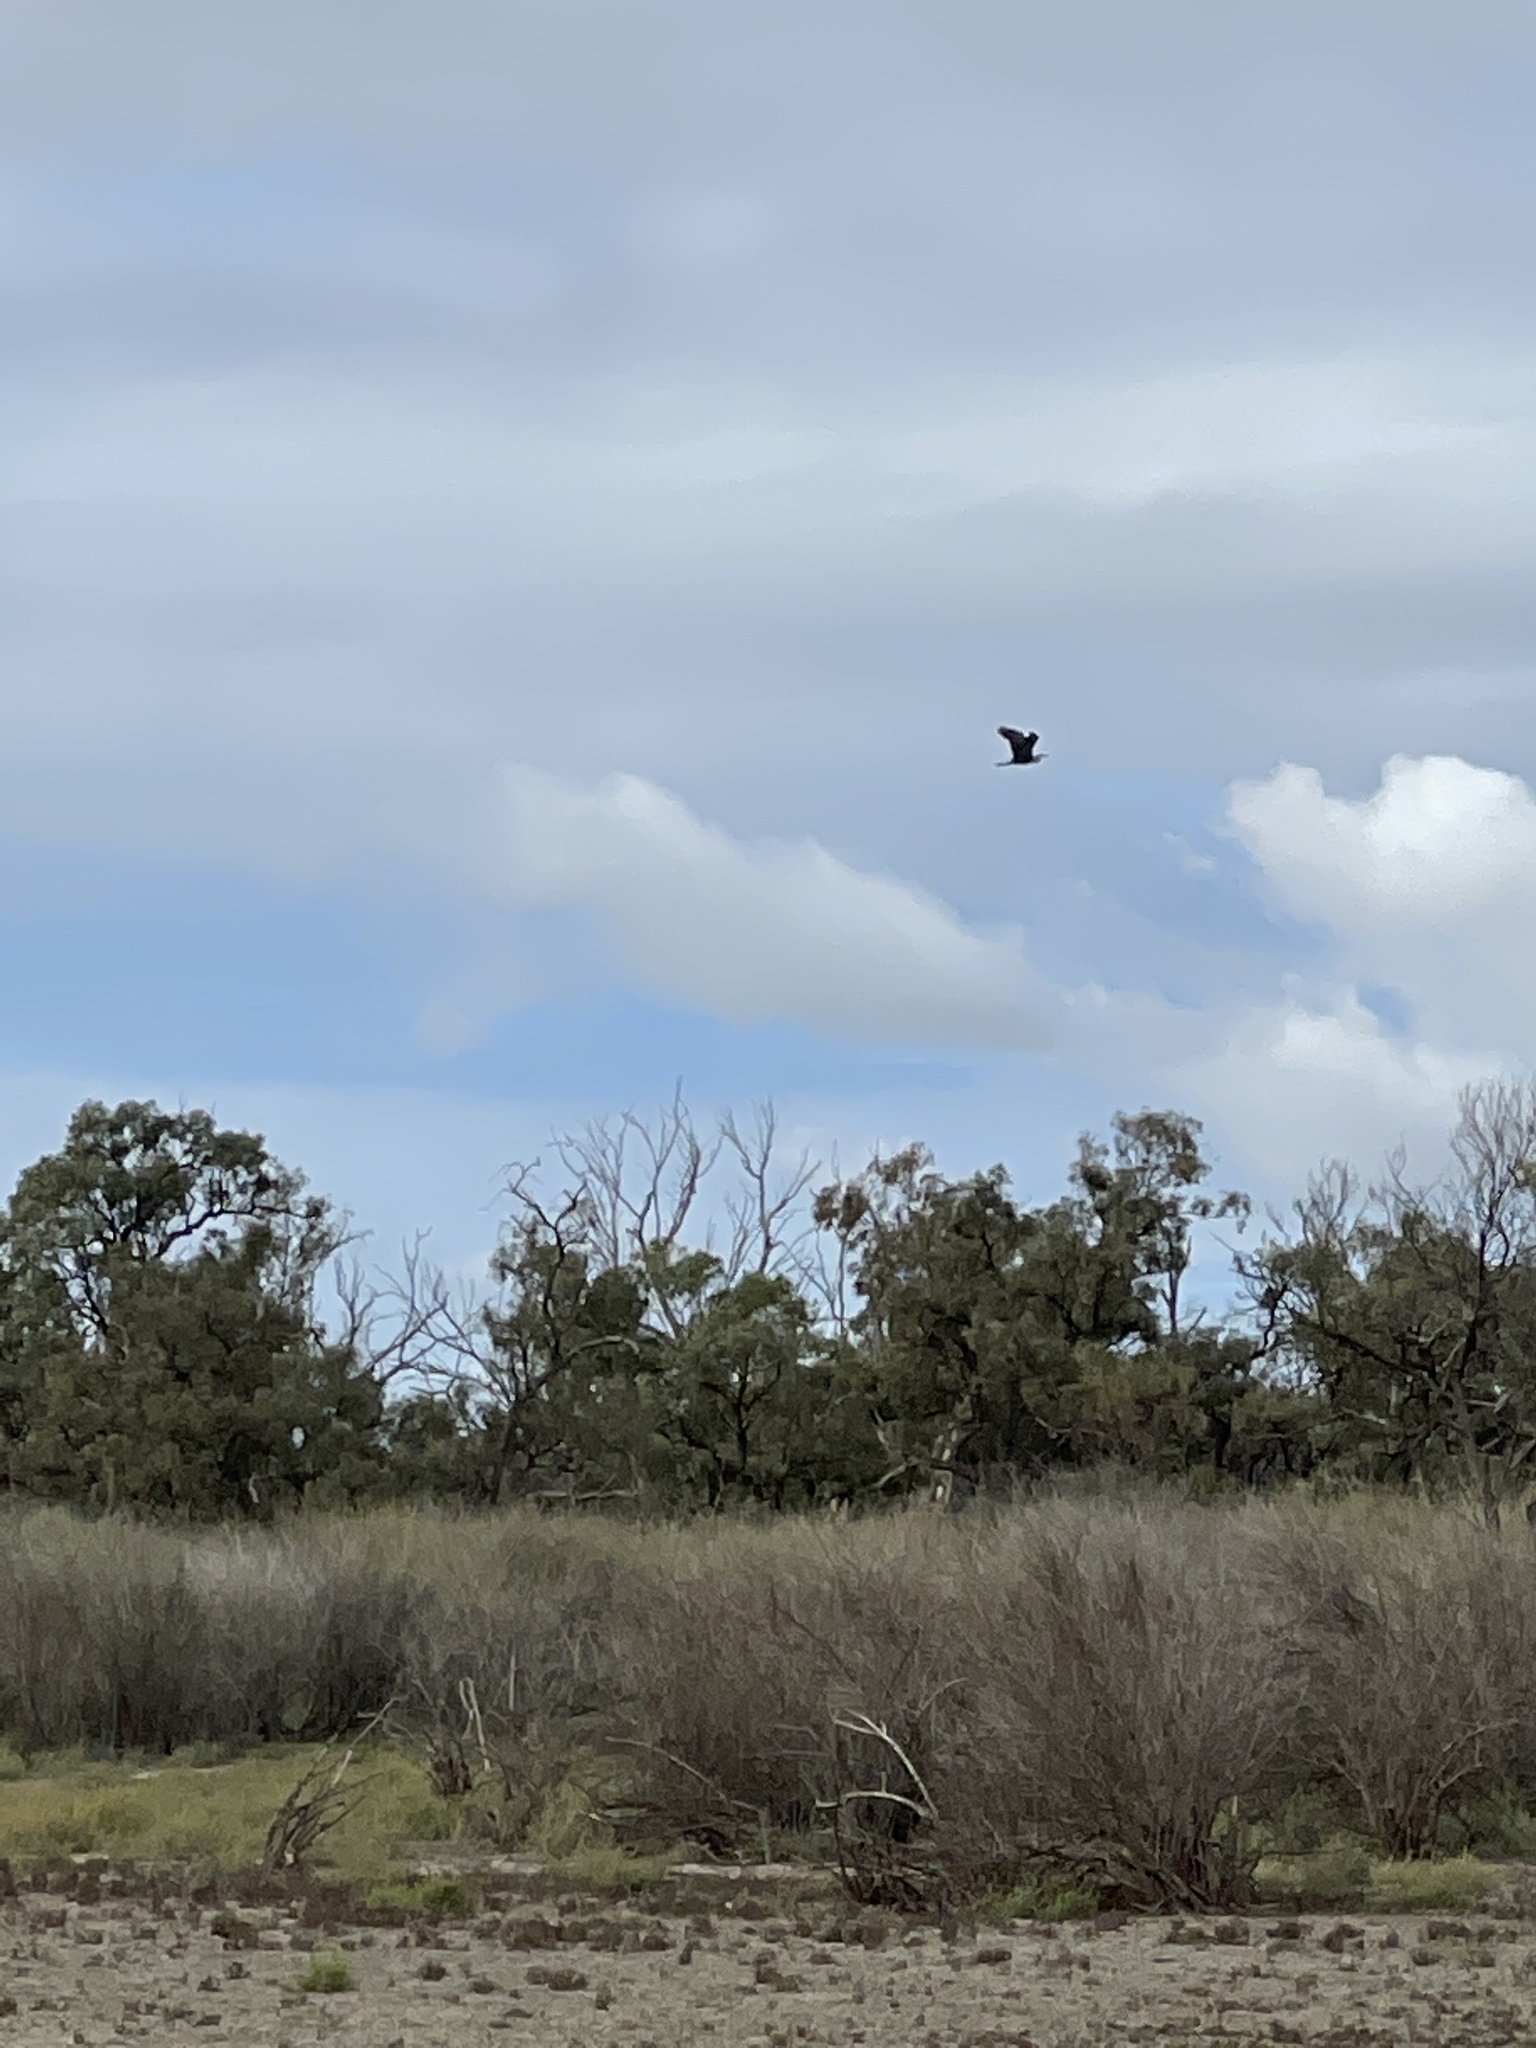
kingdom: Animalia
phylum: Chordata
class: Aves
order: Pelecaniformes
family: Ardeidae
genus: Ardea
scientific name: Ardea pacifica
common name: White-necked heron
